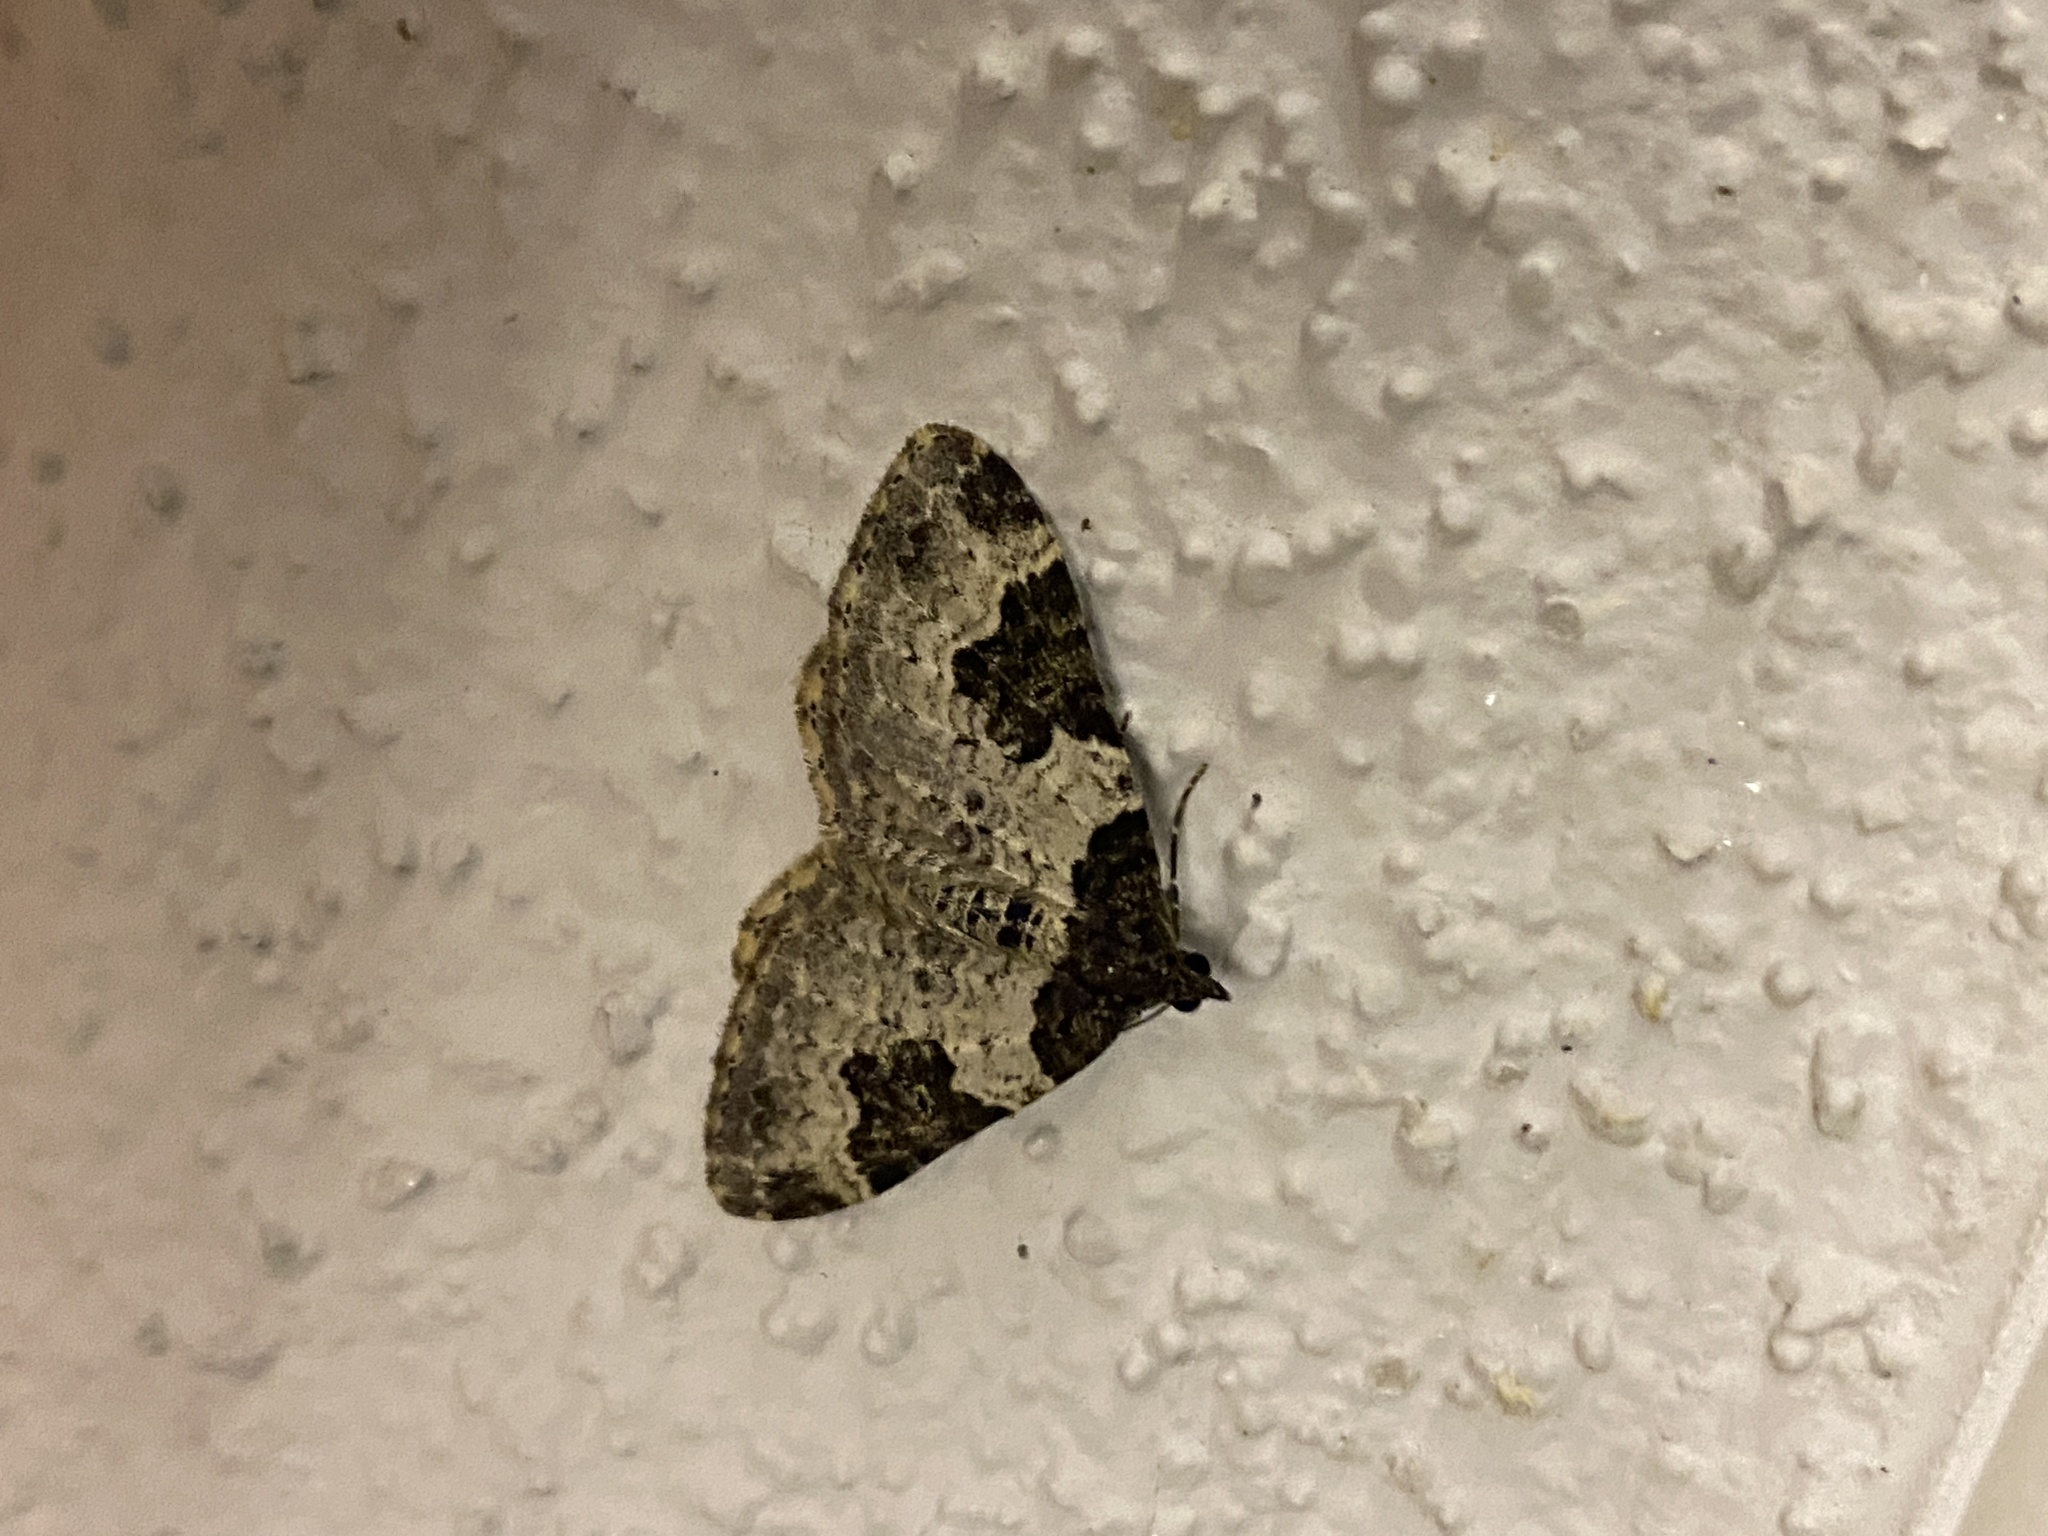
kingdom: Animalia
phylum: Arthropoda
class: Insecta
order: Lepidoptera
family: Geometridae
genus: Xanthorhoe
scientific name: Xanthorhoe fluctuata
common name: Garden carpet
